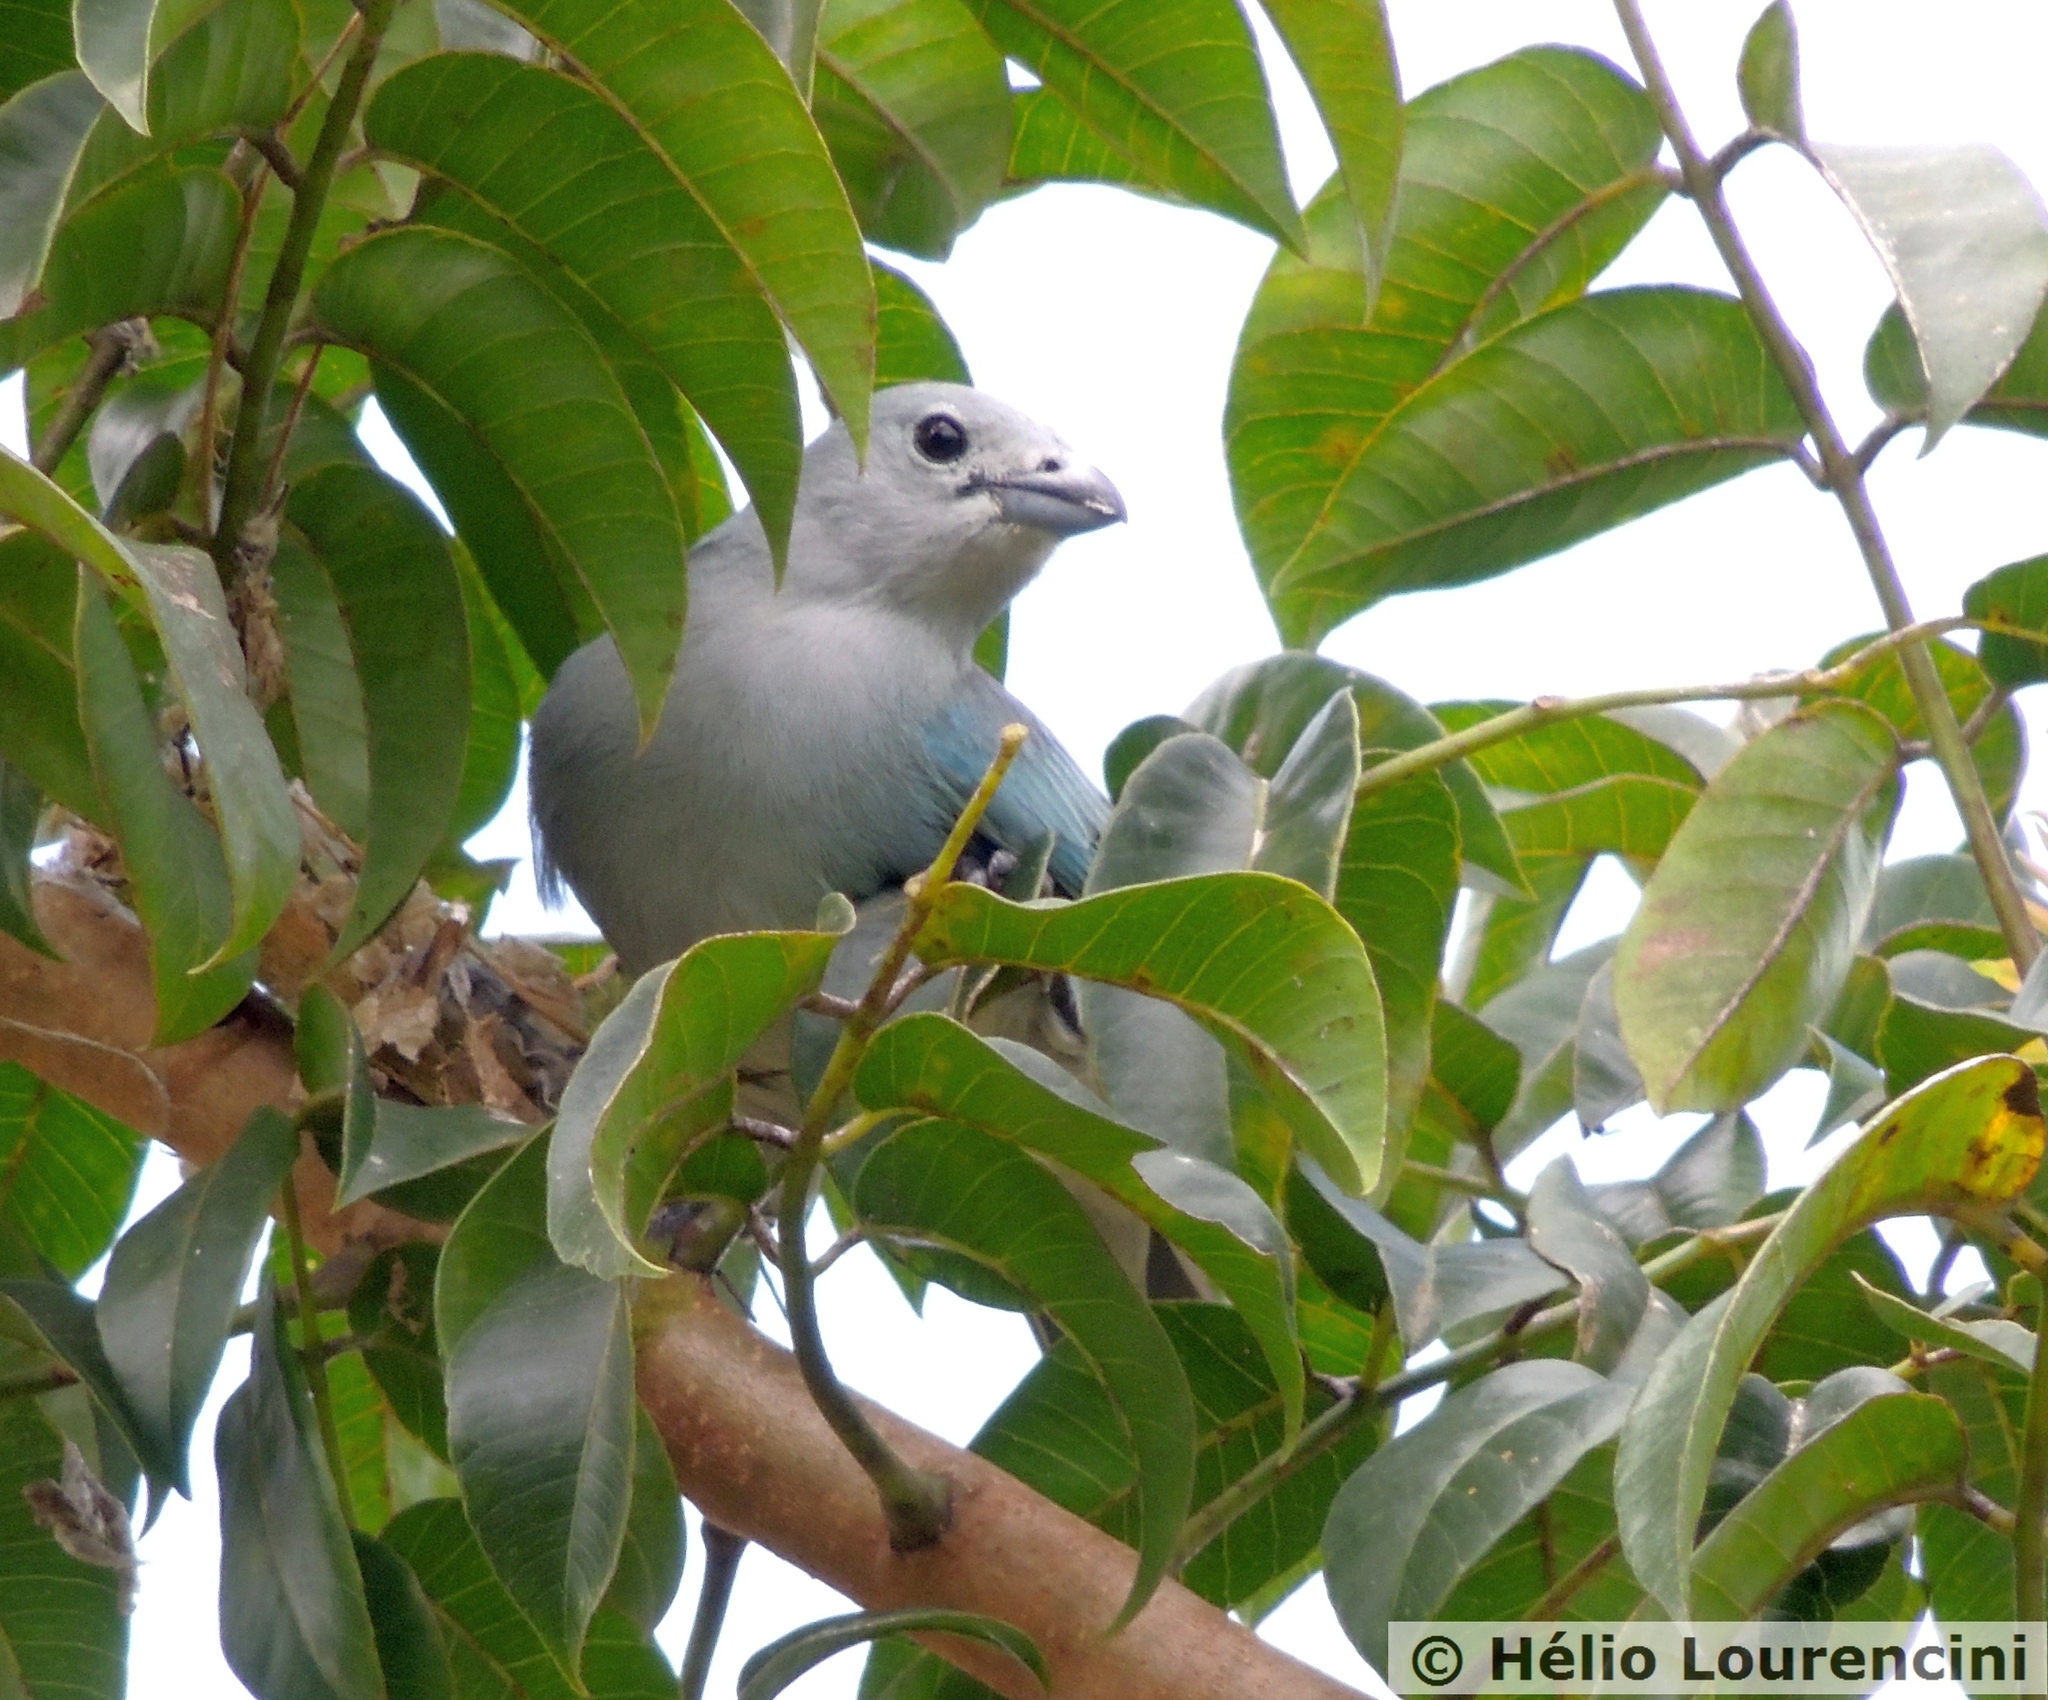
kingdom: Animalia
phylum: Chordata
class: Aves
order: Passeriformes
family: Thraupidae
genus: Thraupis
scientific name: Thraupis sayaca
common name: Sayaca tanager
